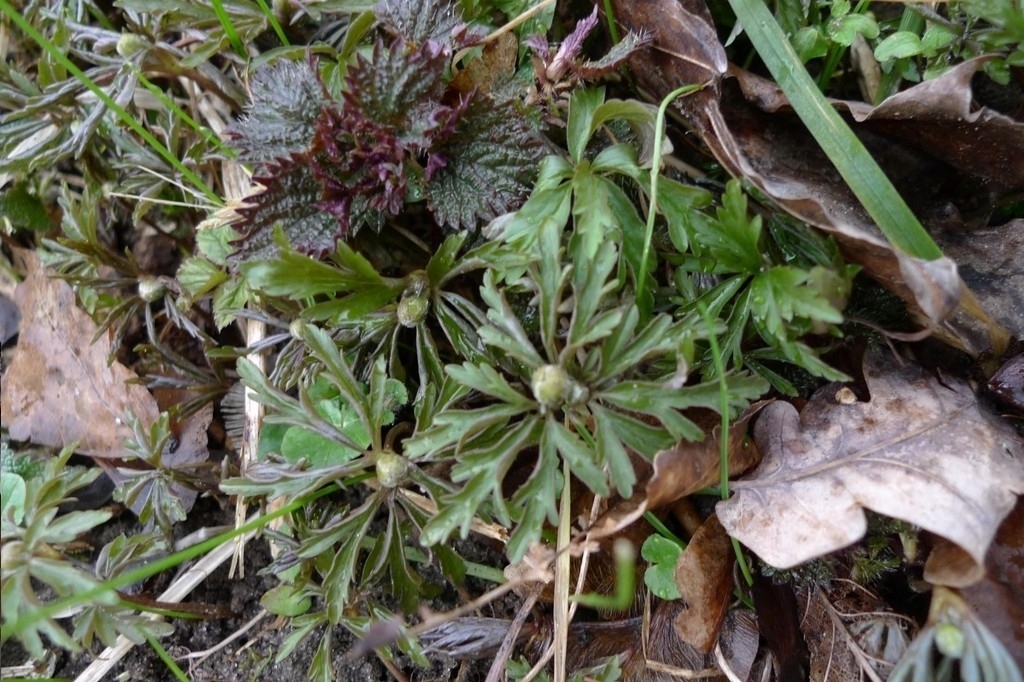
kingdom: Plantae
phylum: Tracheophyta
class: Magnoliopsida
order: Ranunculales
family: Ranunculaceae
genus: Anemone
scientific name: Anemone ranunculoides
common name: Yellow anemone
